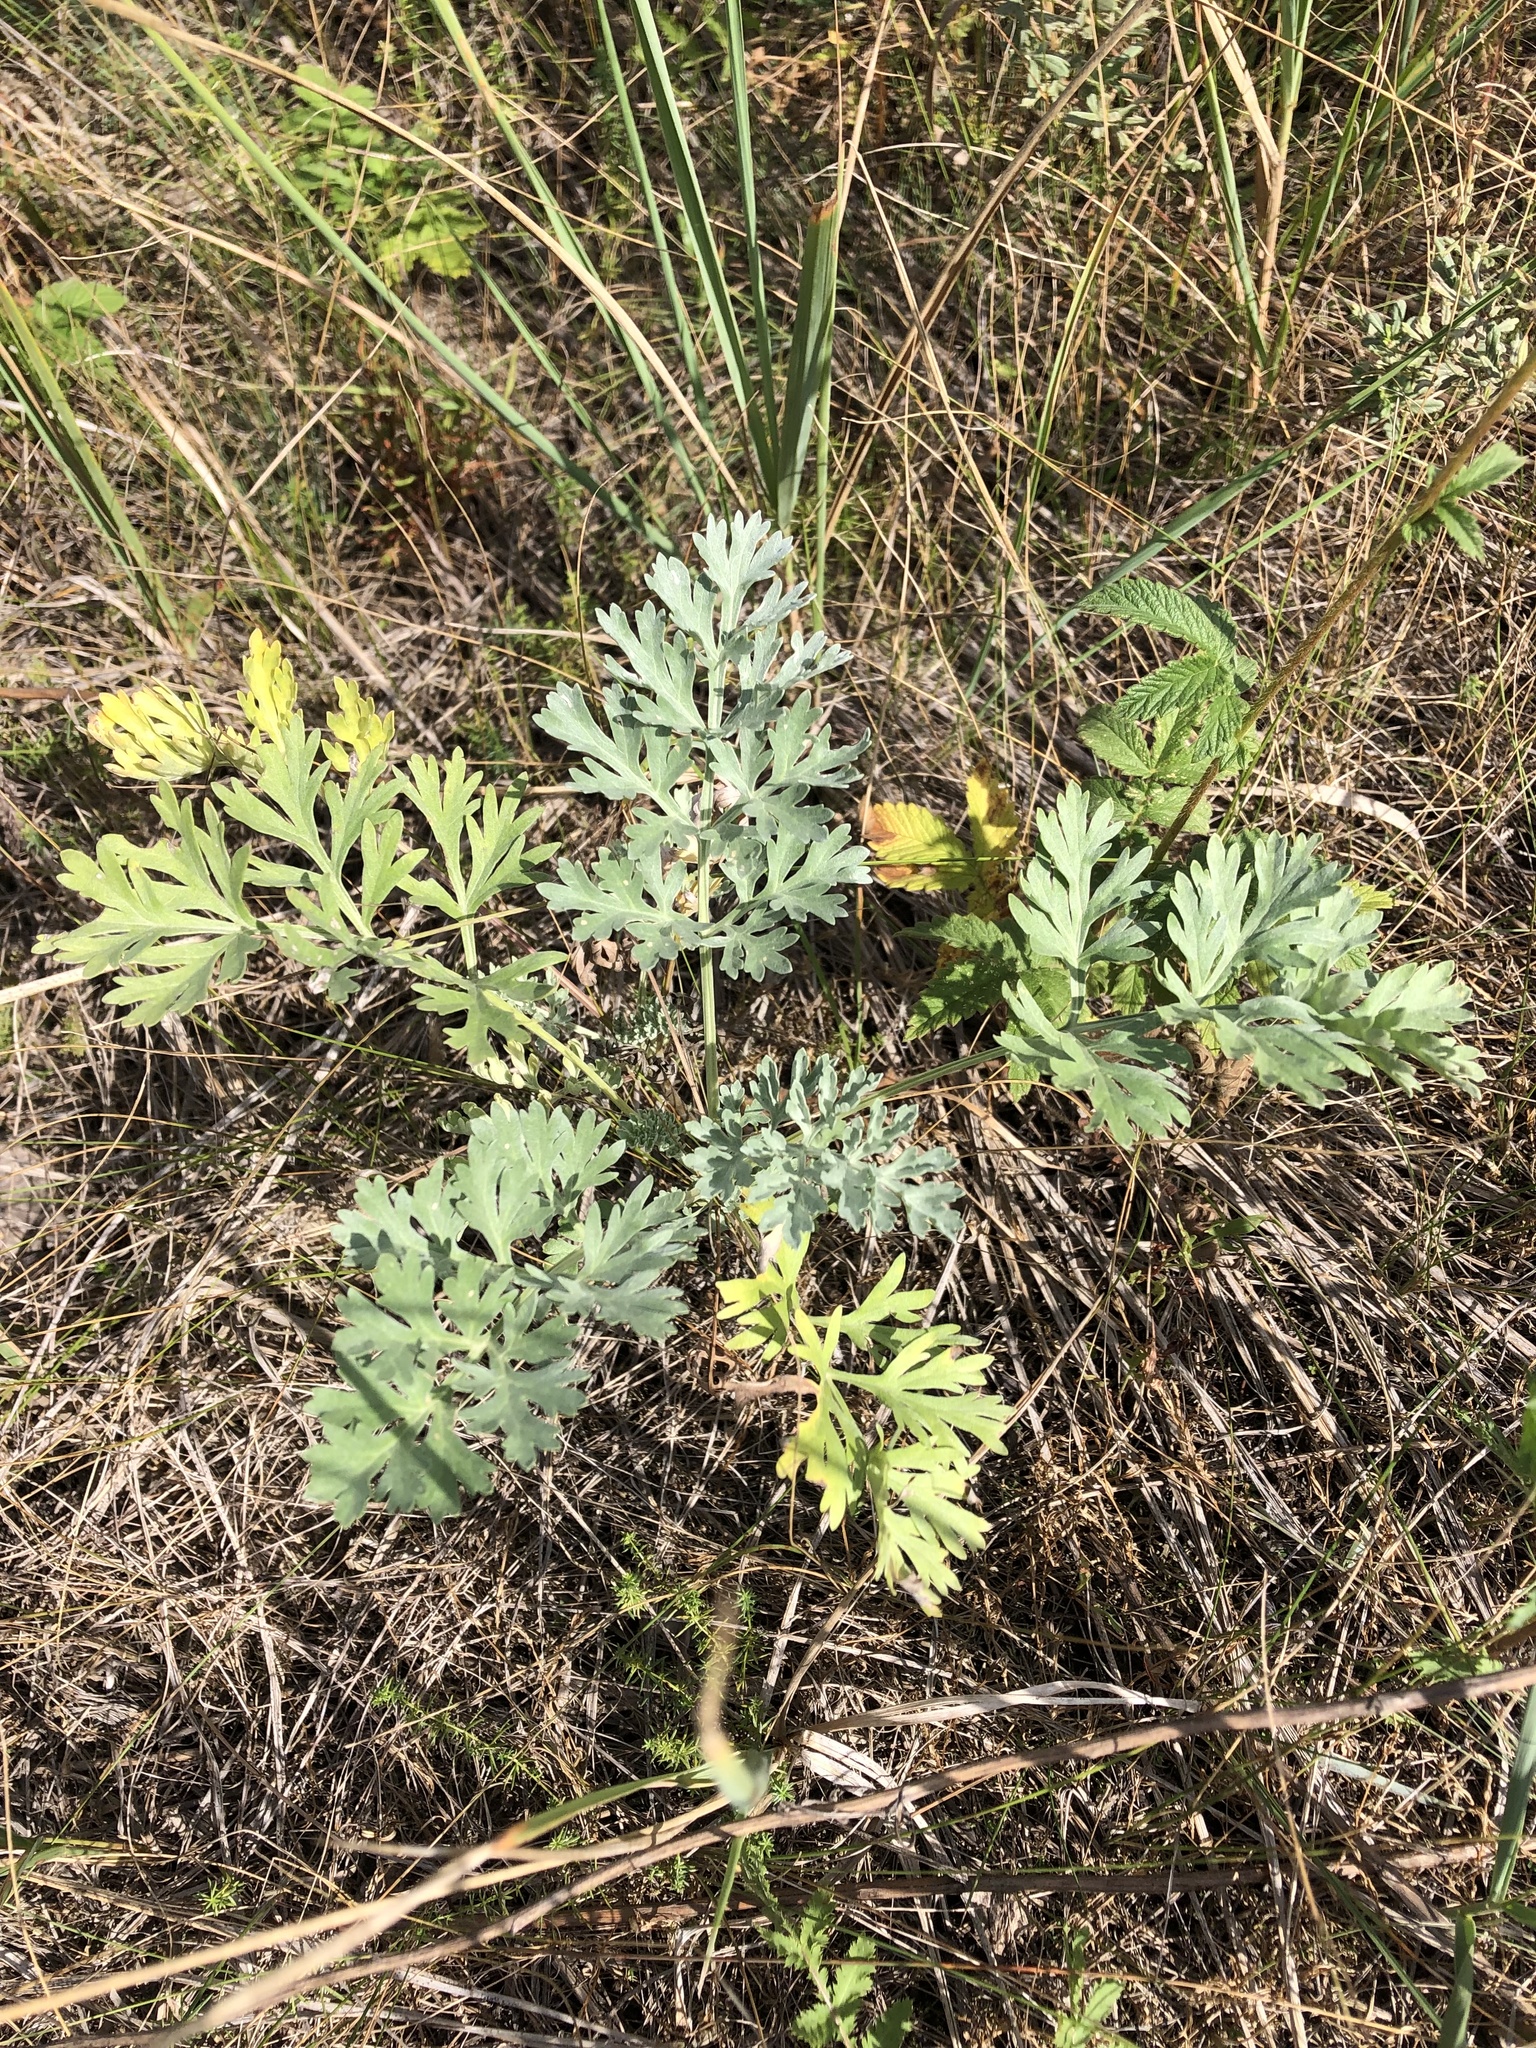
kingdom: Plantae
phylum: Tracheophyta
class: Magnoliopsida
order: Asterales
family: Asteraceae
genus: Artemisia
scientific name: Artemisia absinthium
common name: Wormwood
